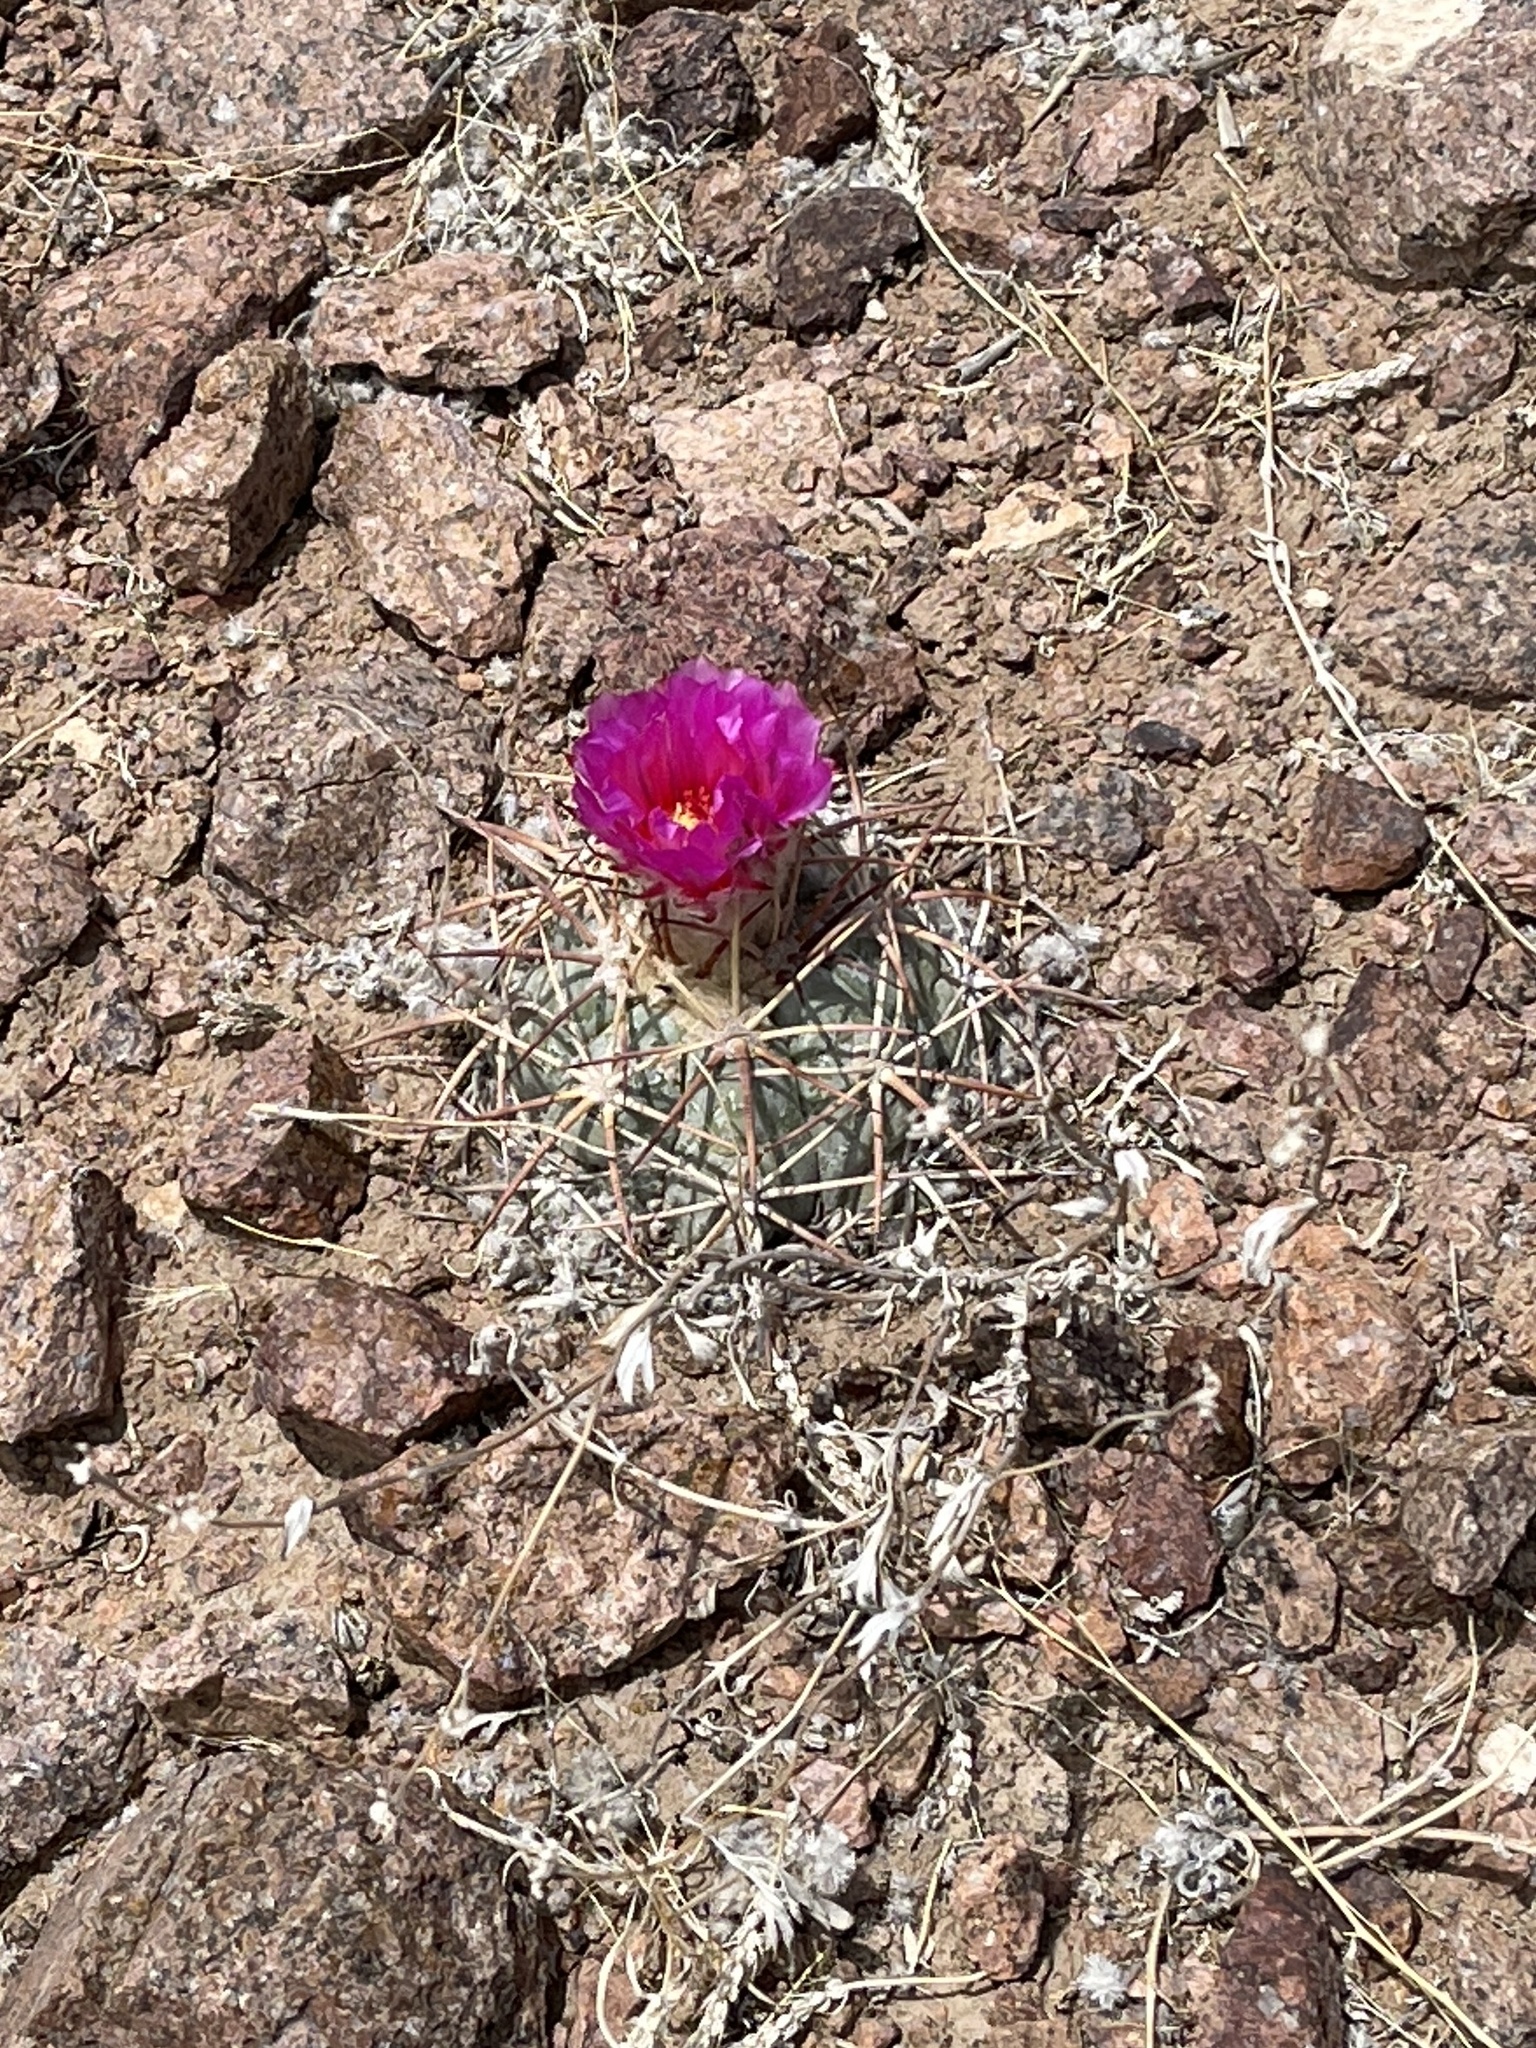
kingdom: Plantae
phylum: Tracheophyta
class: Magnoliopsida
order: Caryophyllales
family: Cactaceae
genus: Echinocactus
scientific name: Echinocactus horizonthalonius
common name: Devilshead
